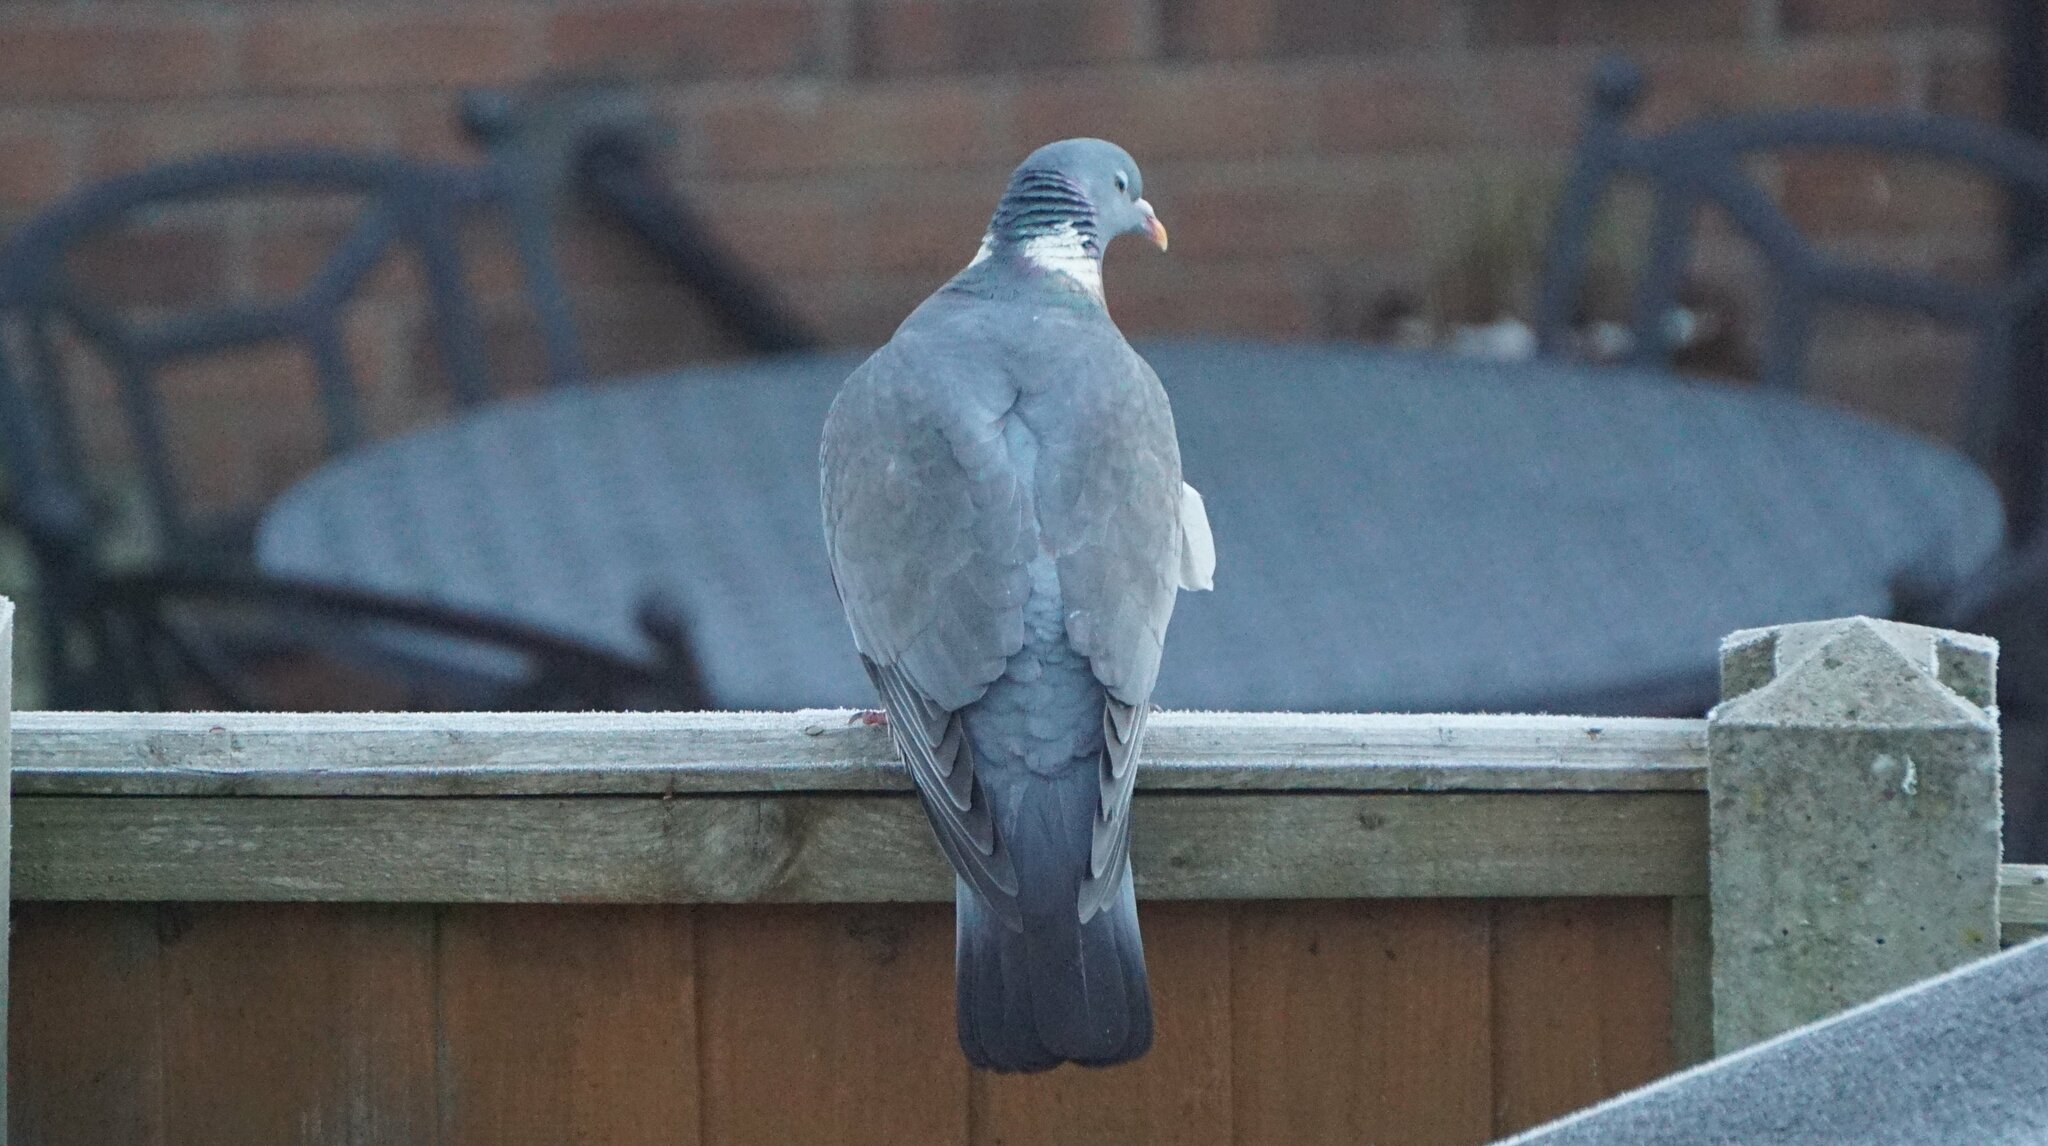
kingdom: Animalia
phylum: Chordata
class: Aves
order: Columbiformes
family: Columbidae
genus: Columba
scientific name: Columba palumbus
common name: Common wood pigeon
